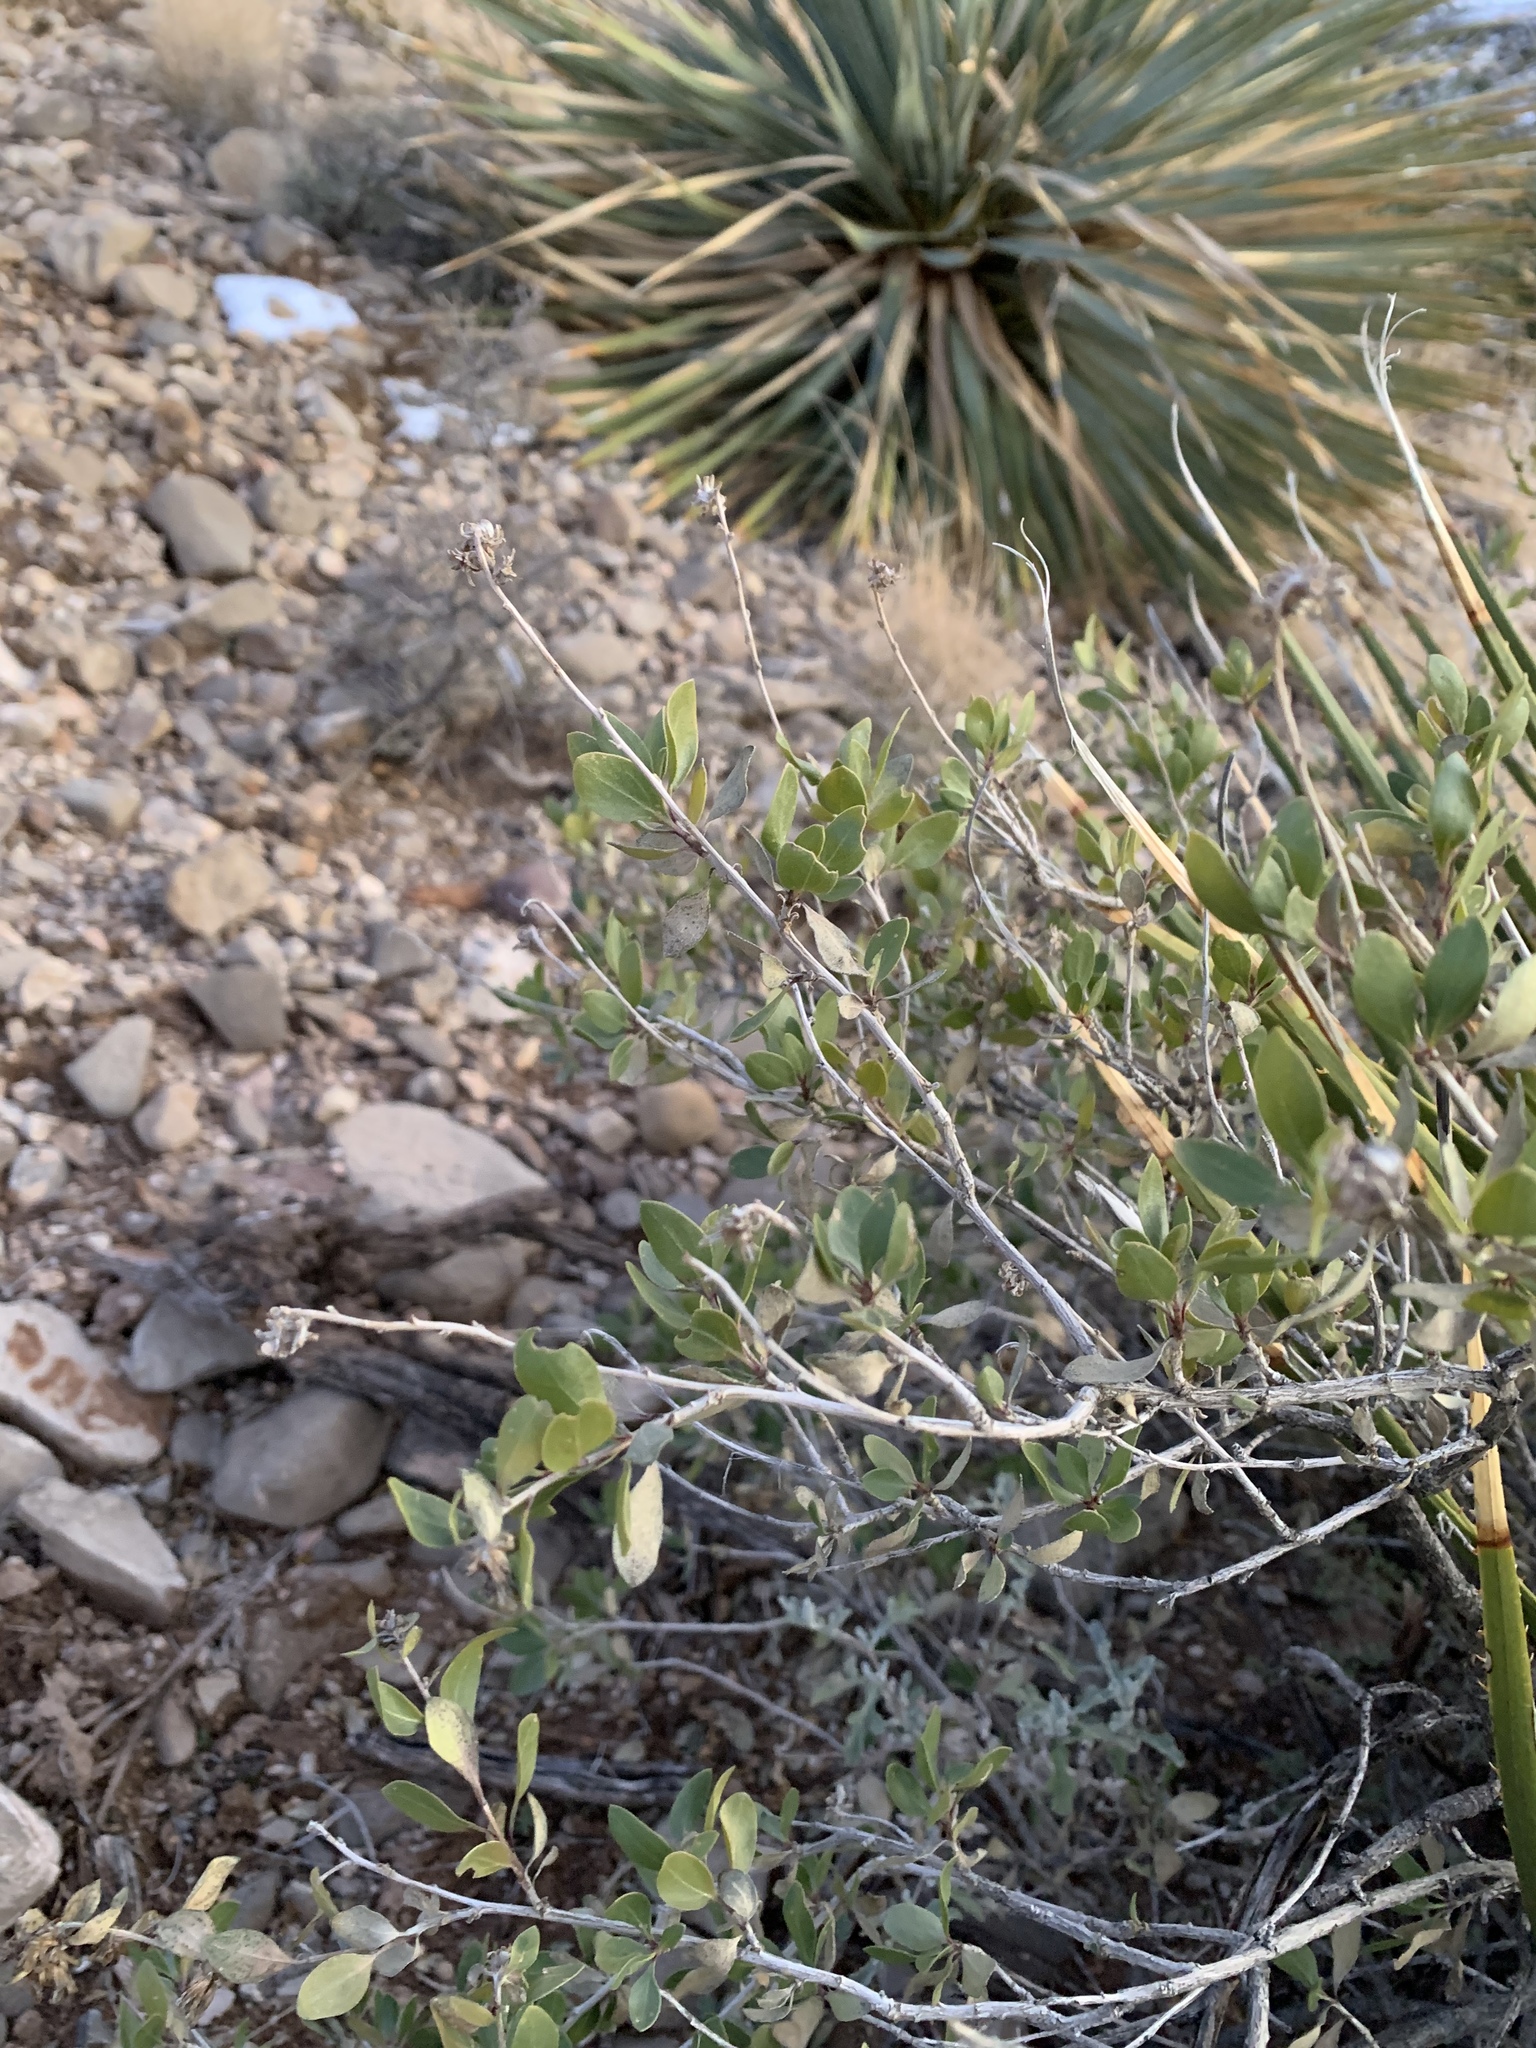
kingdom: Plantae
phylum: Tracheophyta
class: Magnoliopsida
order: Asterales
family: Asteraceae
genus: Flourensia
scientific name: Flourensia cernua
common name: Varnishbush
